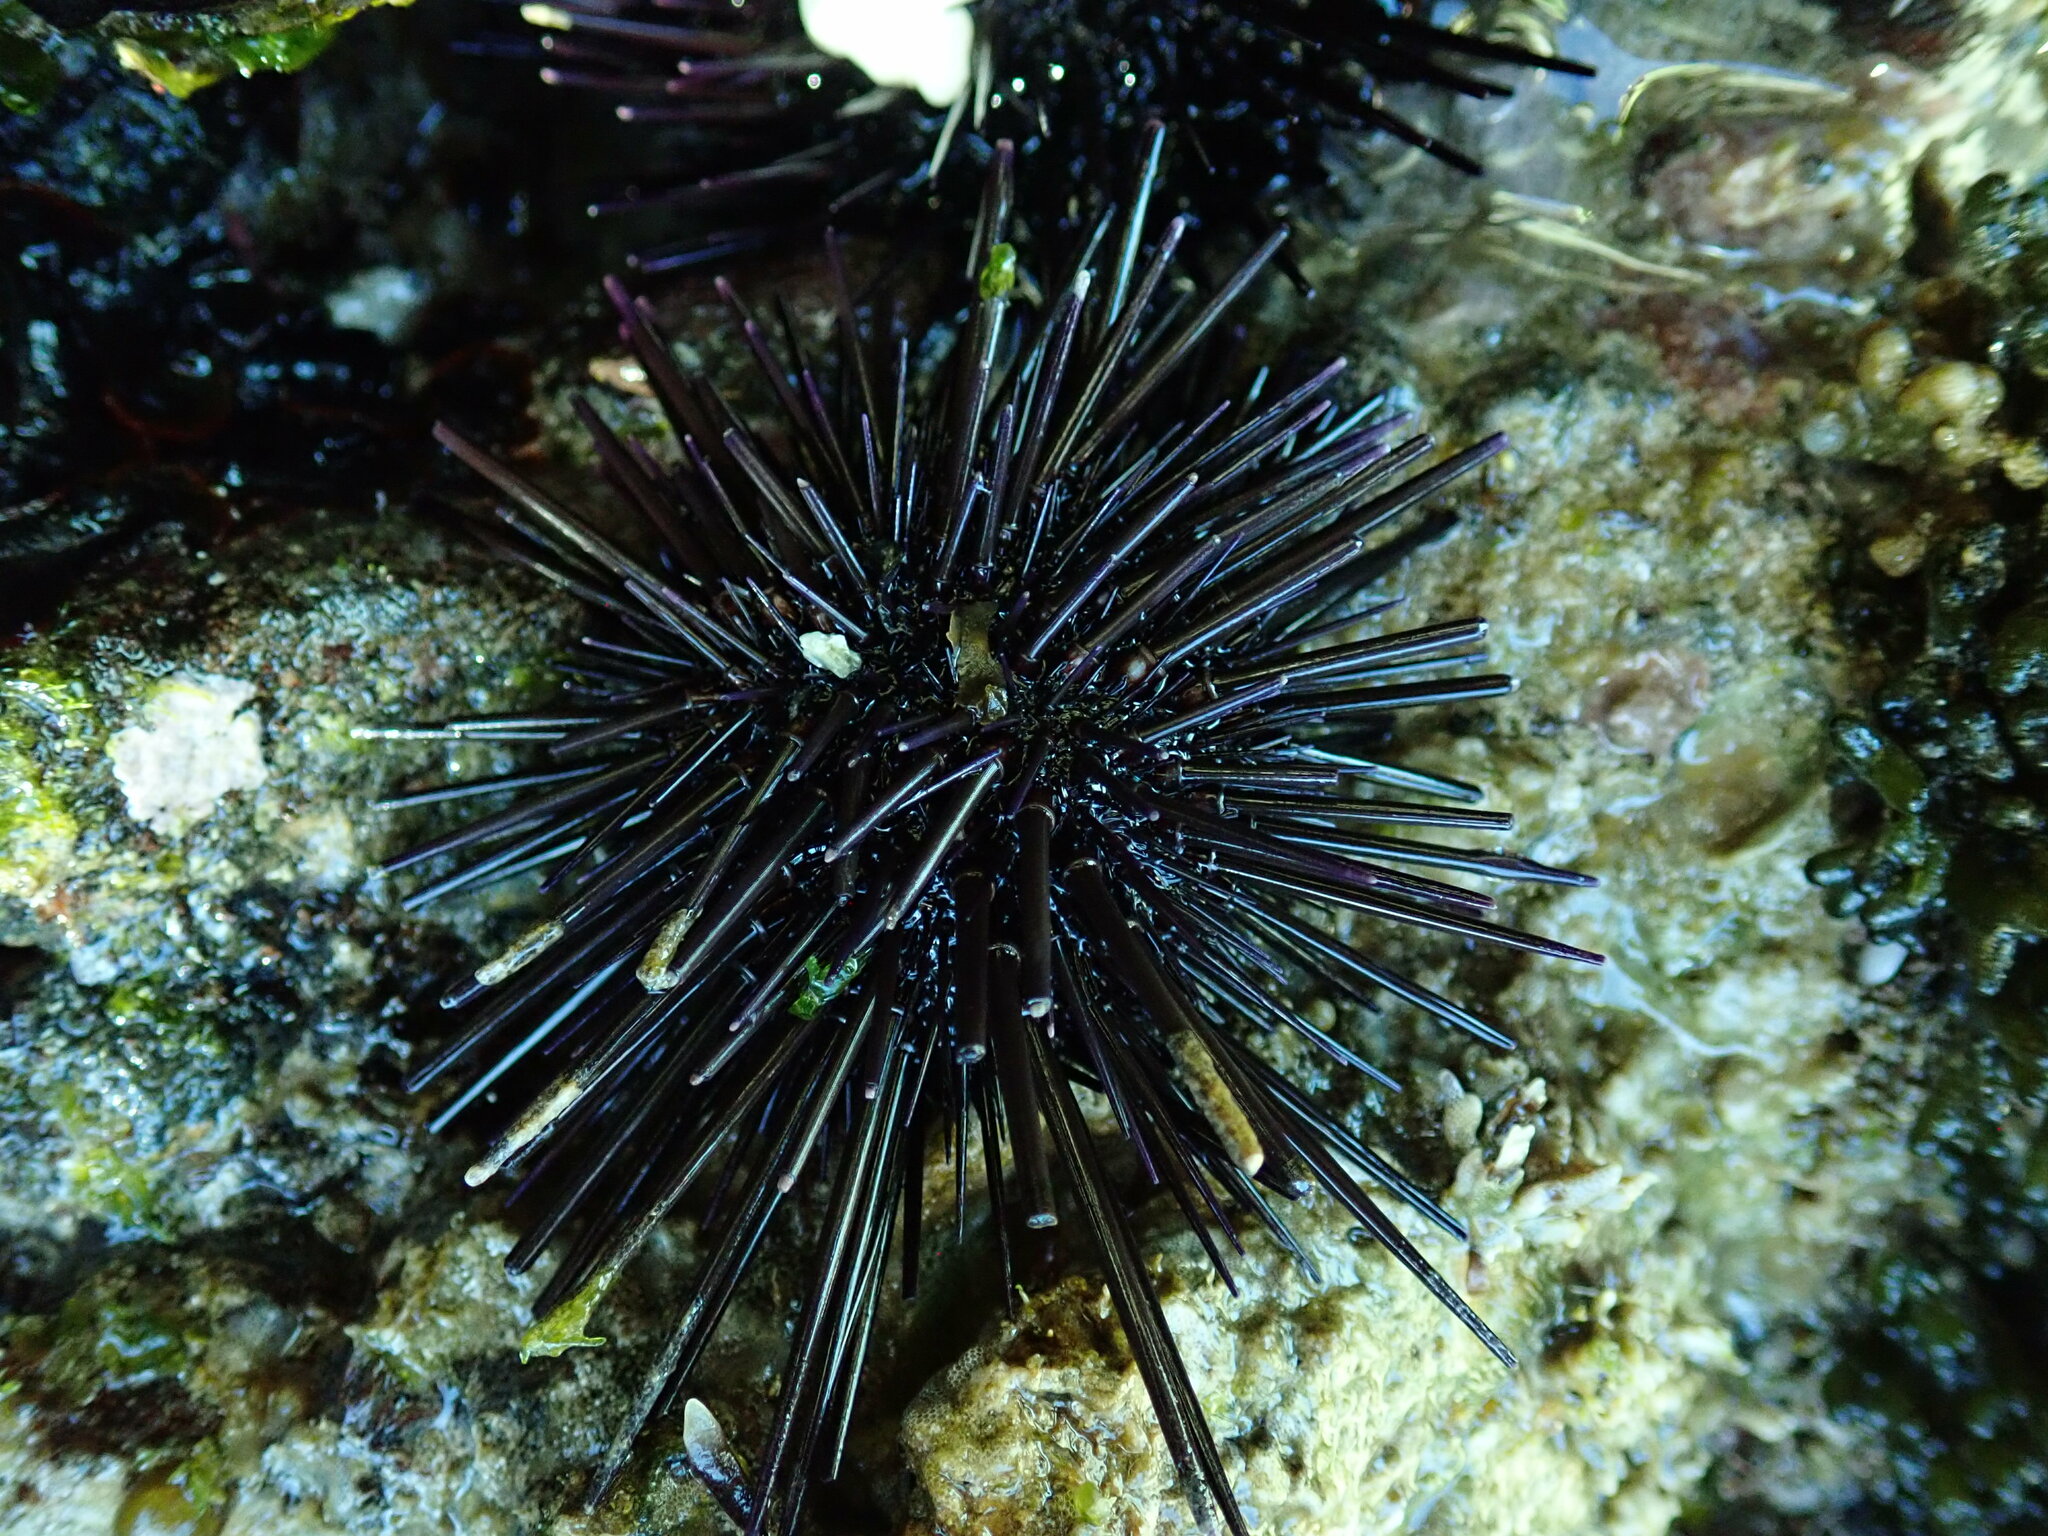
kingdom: Animalia
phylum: Echinodermata
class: Echinoidea
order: Camarodonta
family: Echinometridae
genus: Echinometra
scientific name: Echinometra vanbrunti
